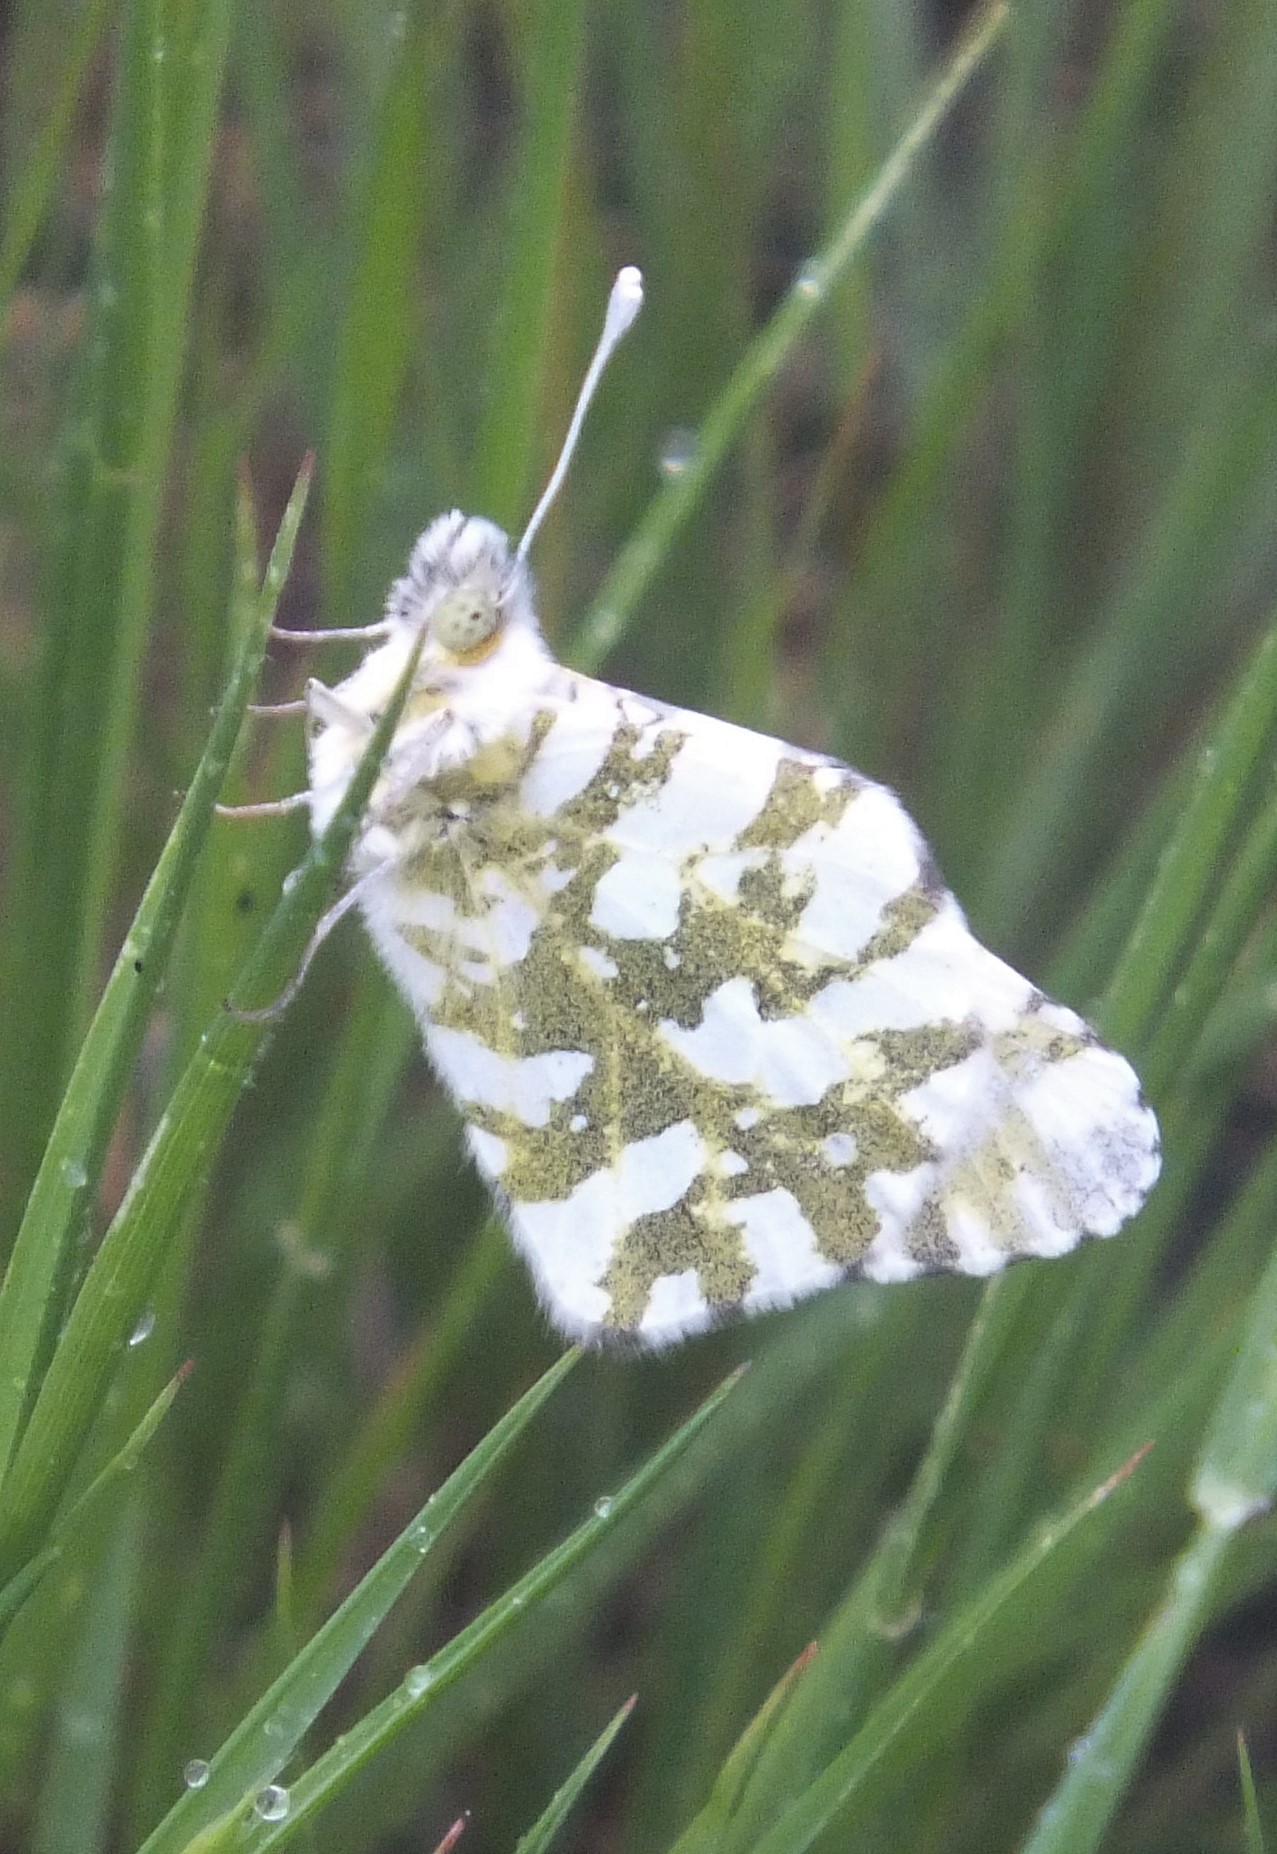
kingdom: Animalia
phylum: Arthropoda
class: Insecta
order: Lepidoptera
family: Pieridae
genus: Euchloe
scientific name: Euchloe ausonides
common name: Creamy marblewing
